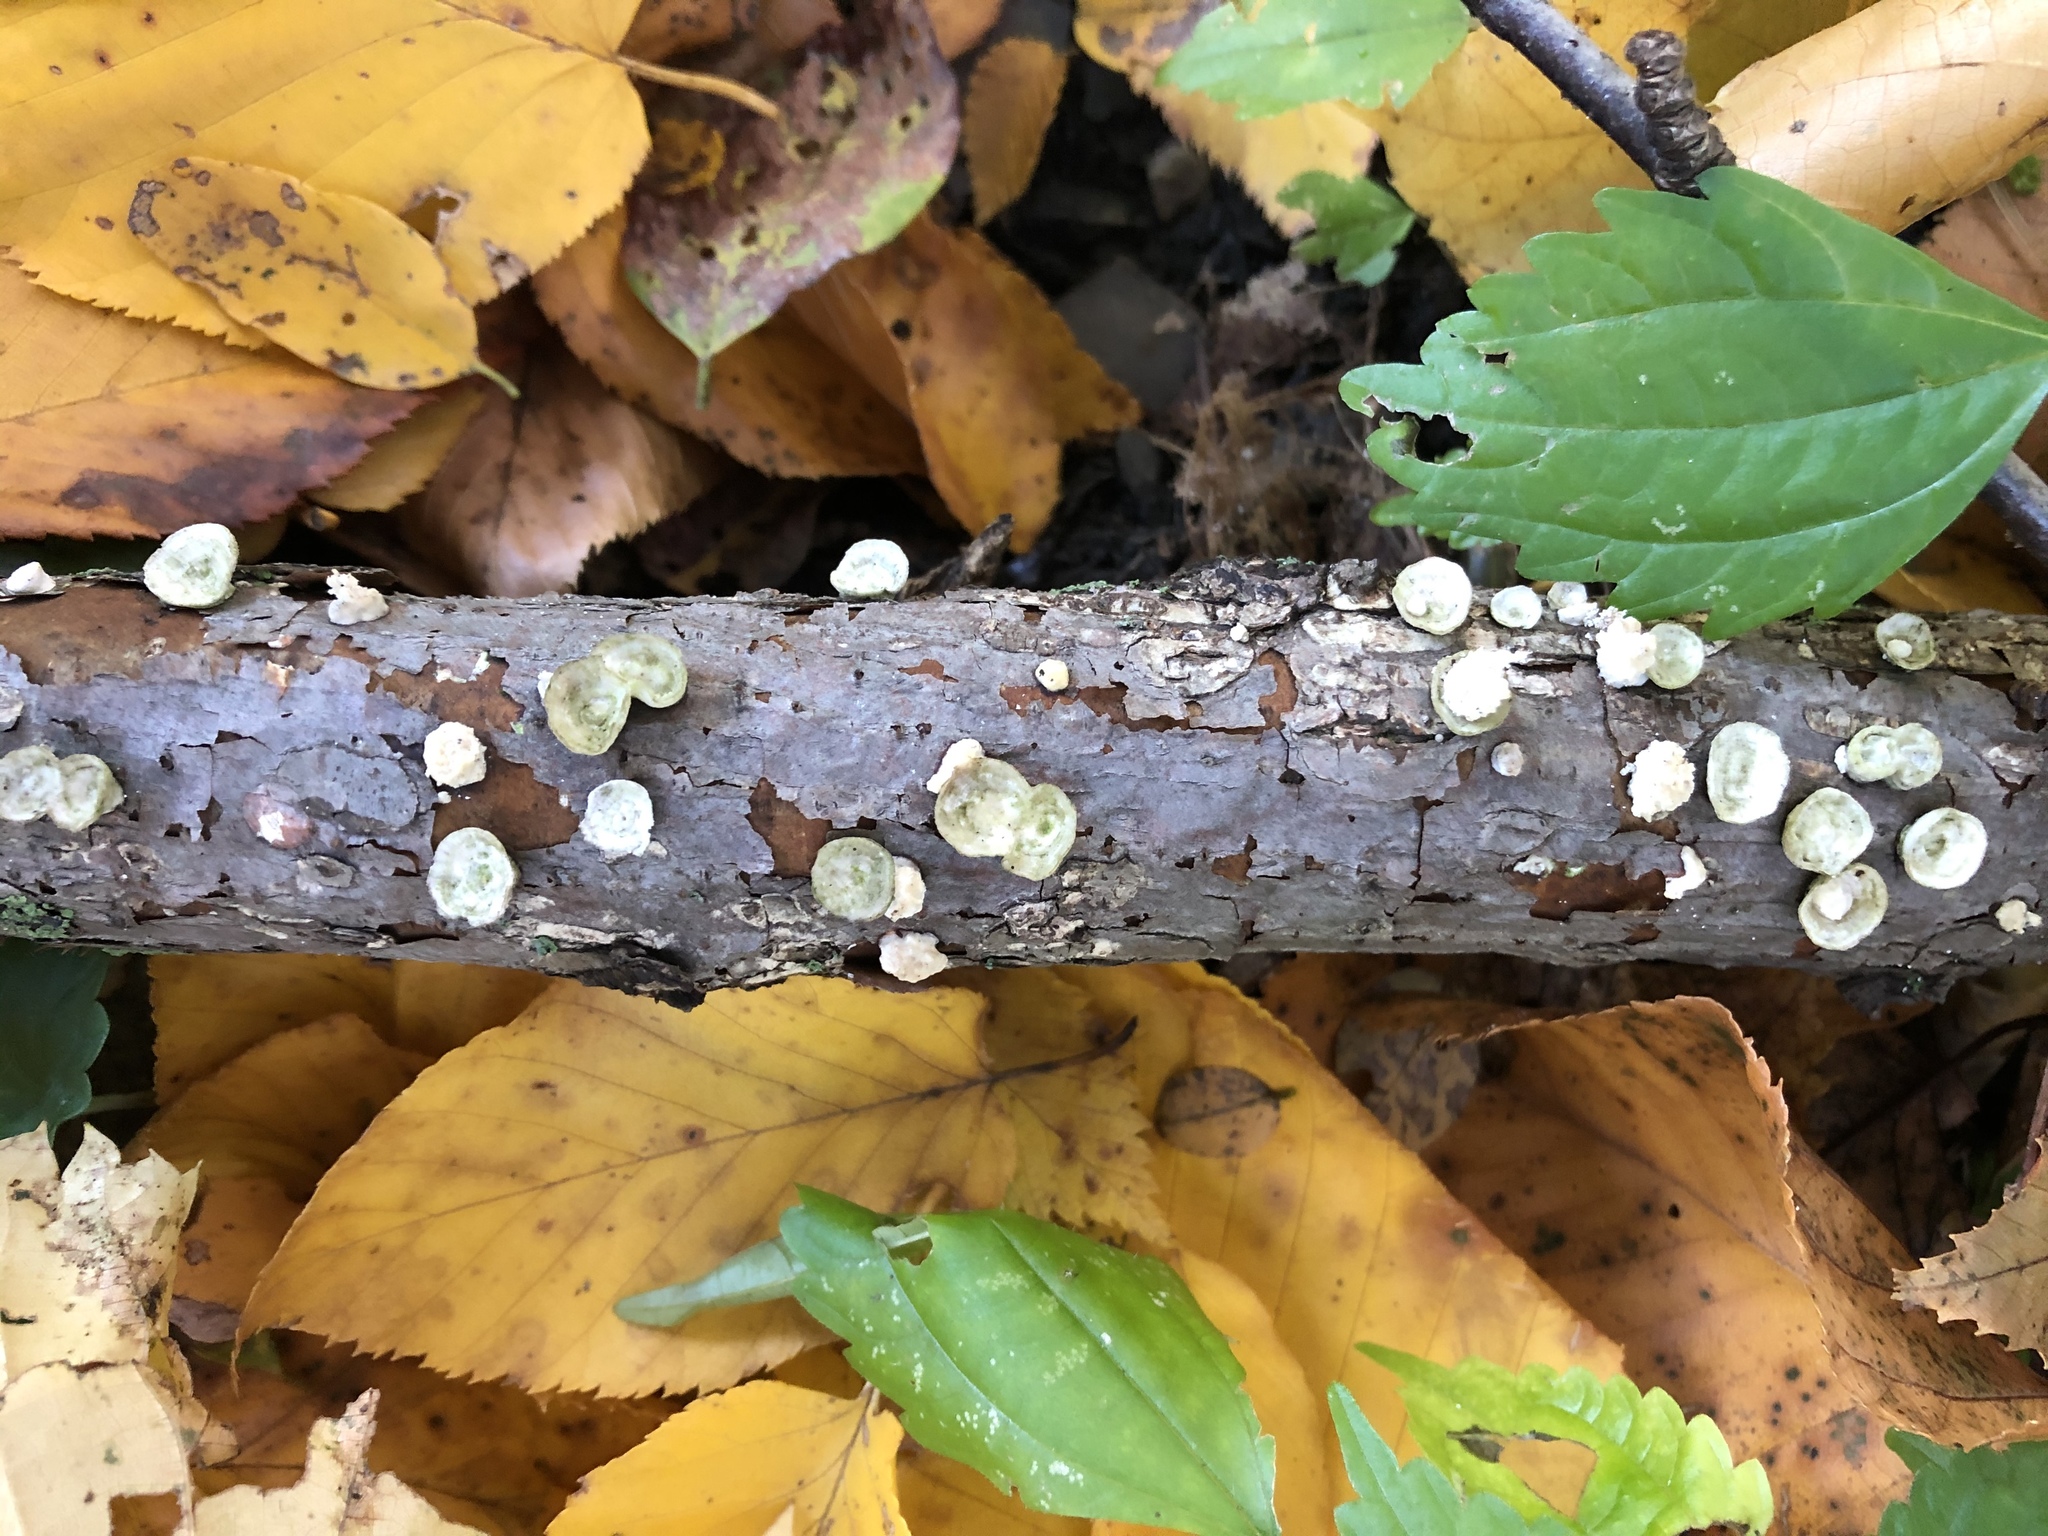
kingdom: Fungi
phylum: Basidiomycota
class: Agaricomycetes
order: Polyporales
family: Polyporaceae
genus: Poronidulus
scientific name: Poronidulus conchifer
